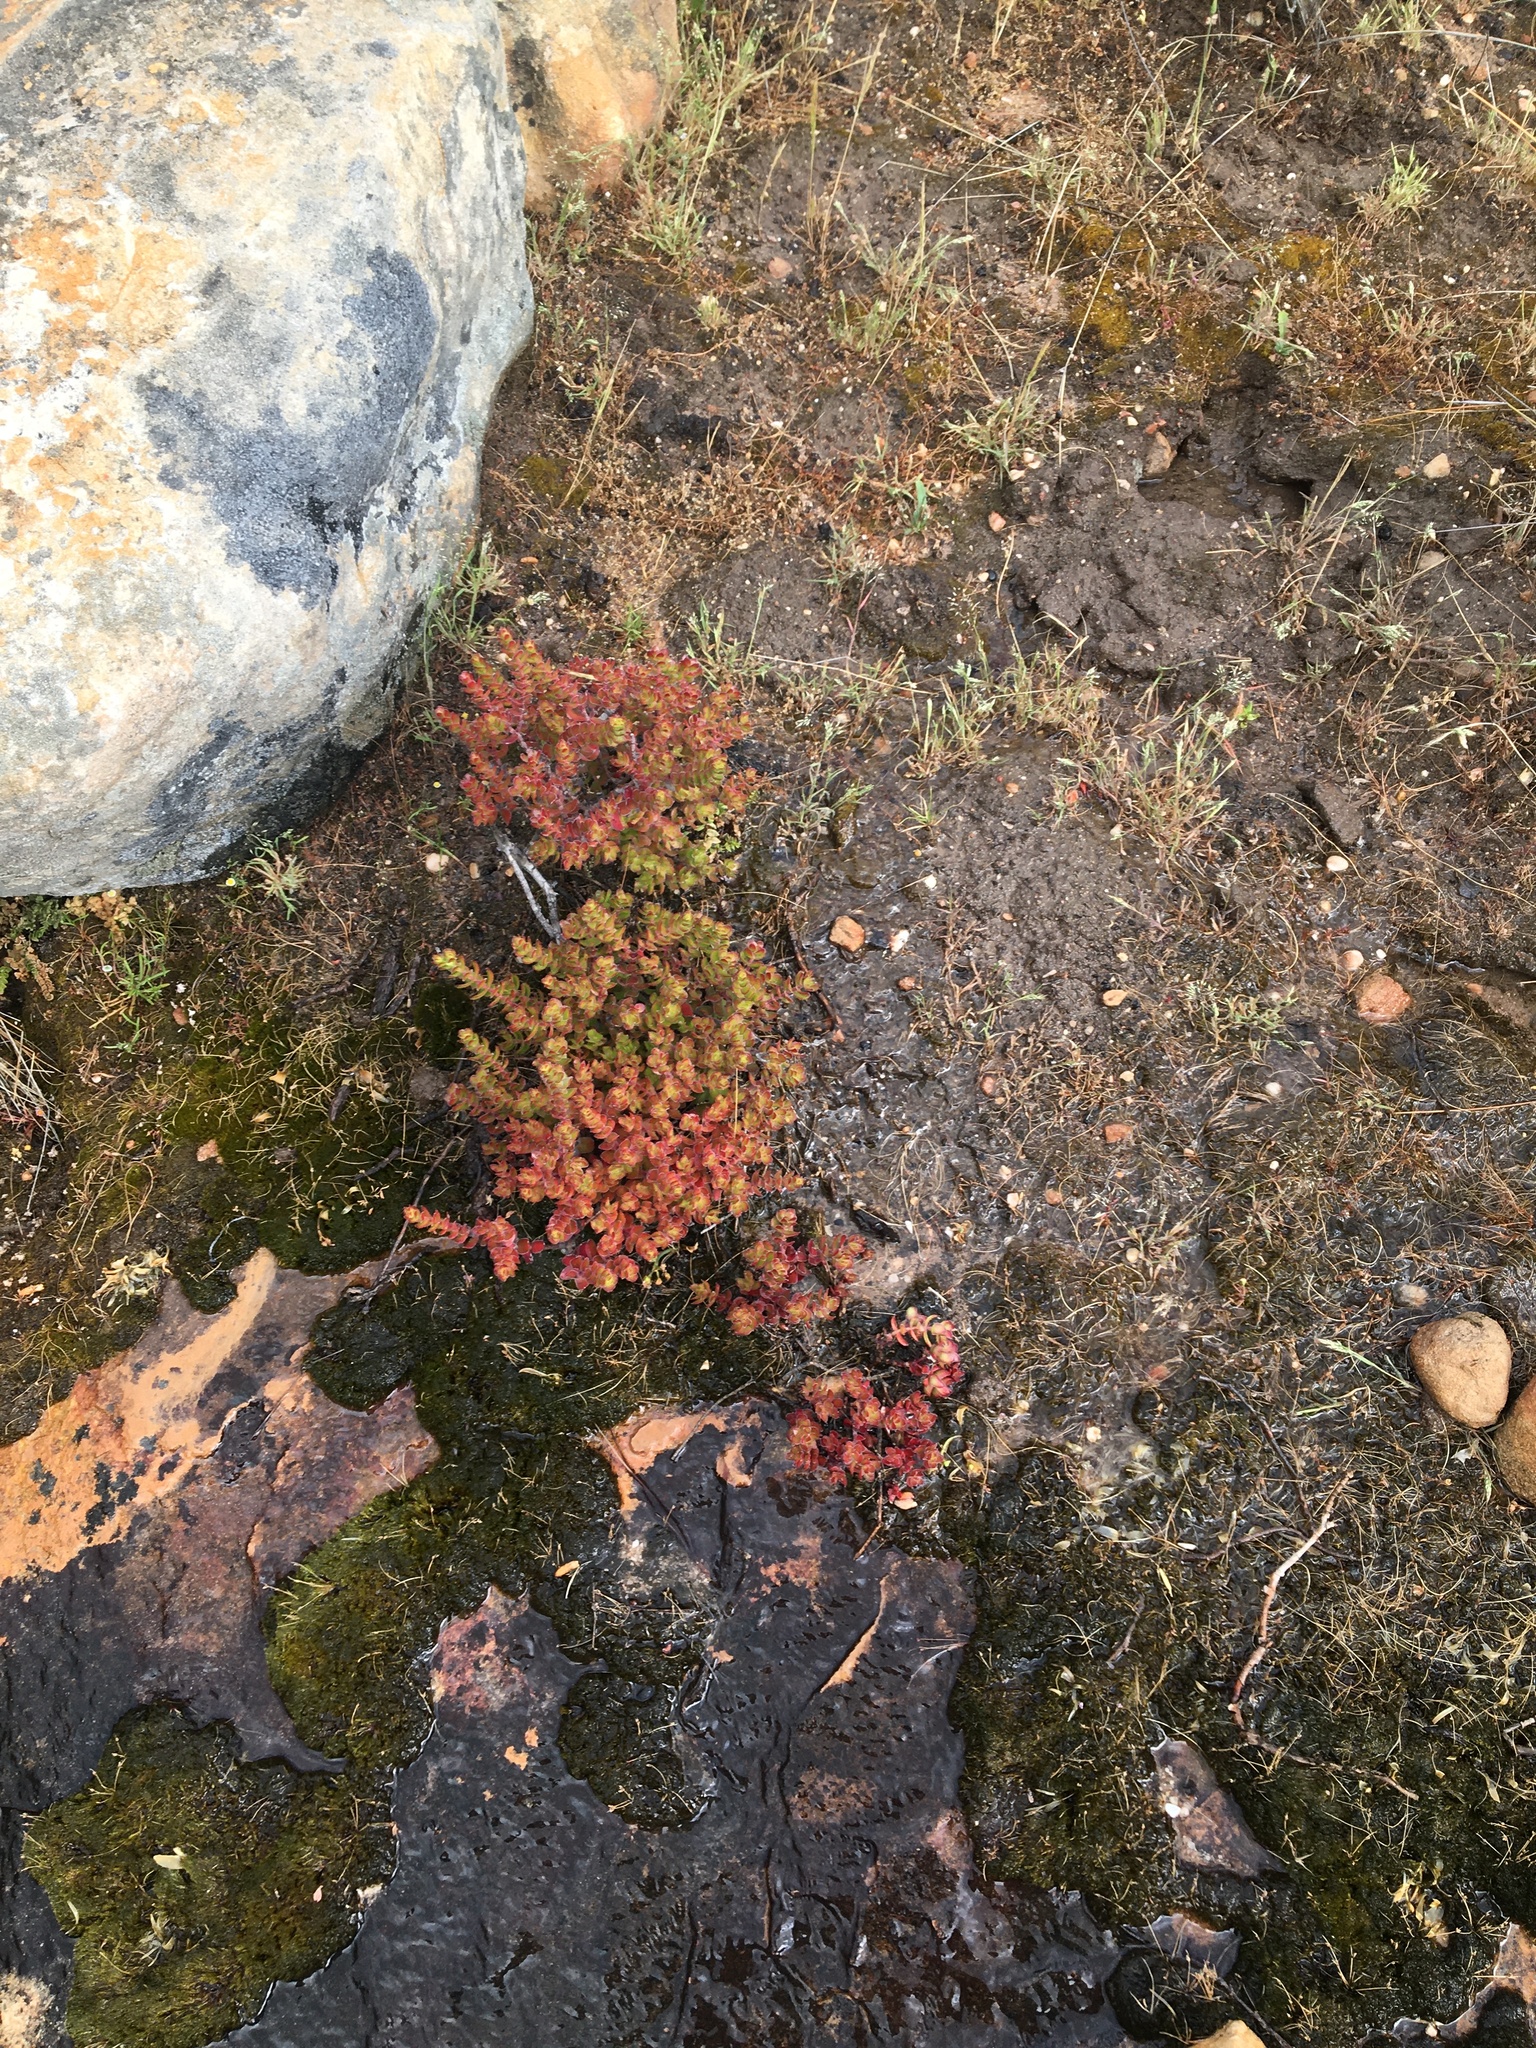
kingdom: Plantae
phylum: Tracheophyta
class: Magnoliopsida
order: Saxifragales
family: Crassulaceae
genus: Crassula
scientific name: Crassula undulata
